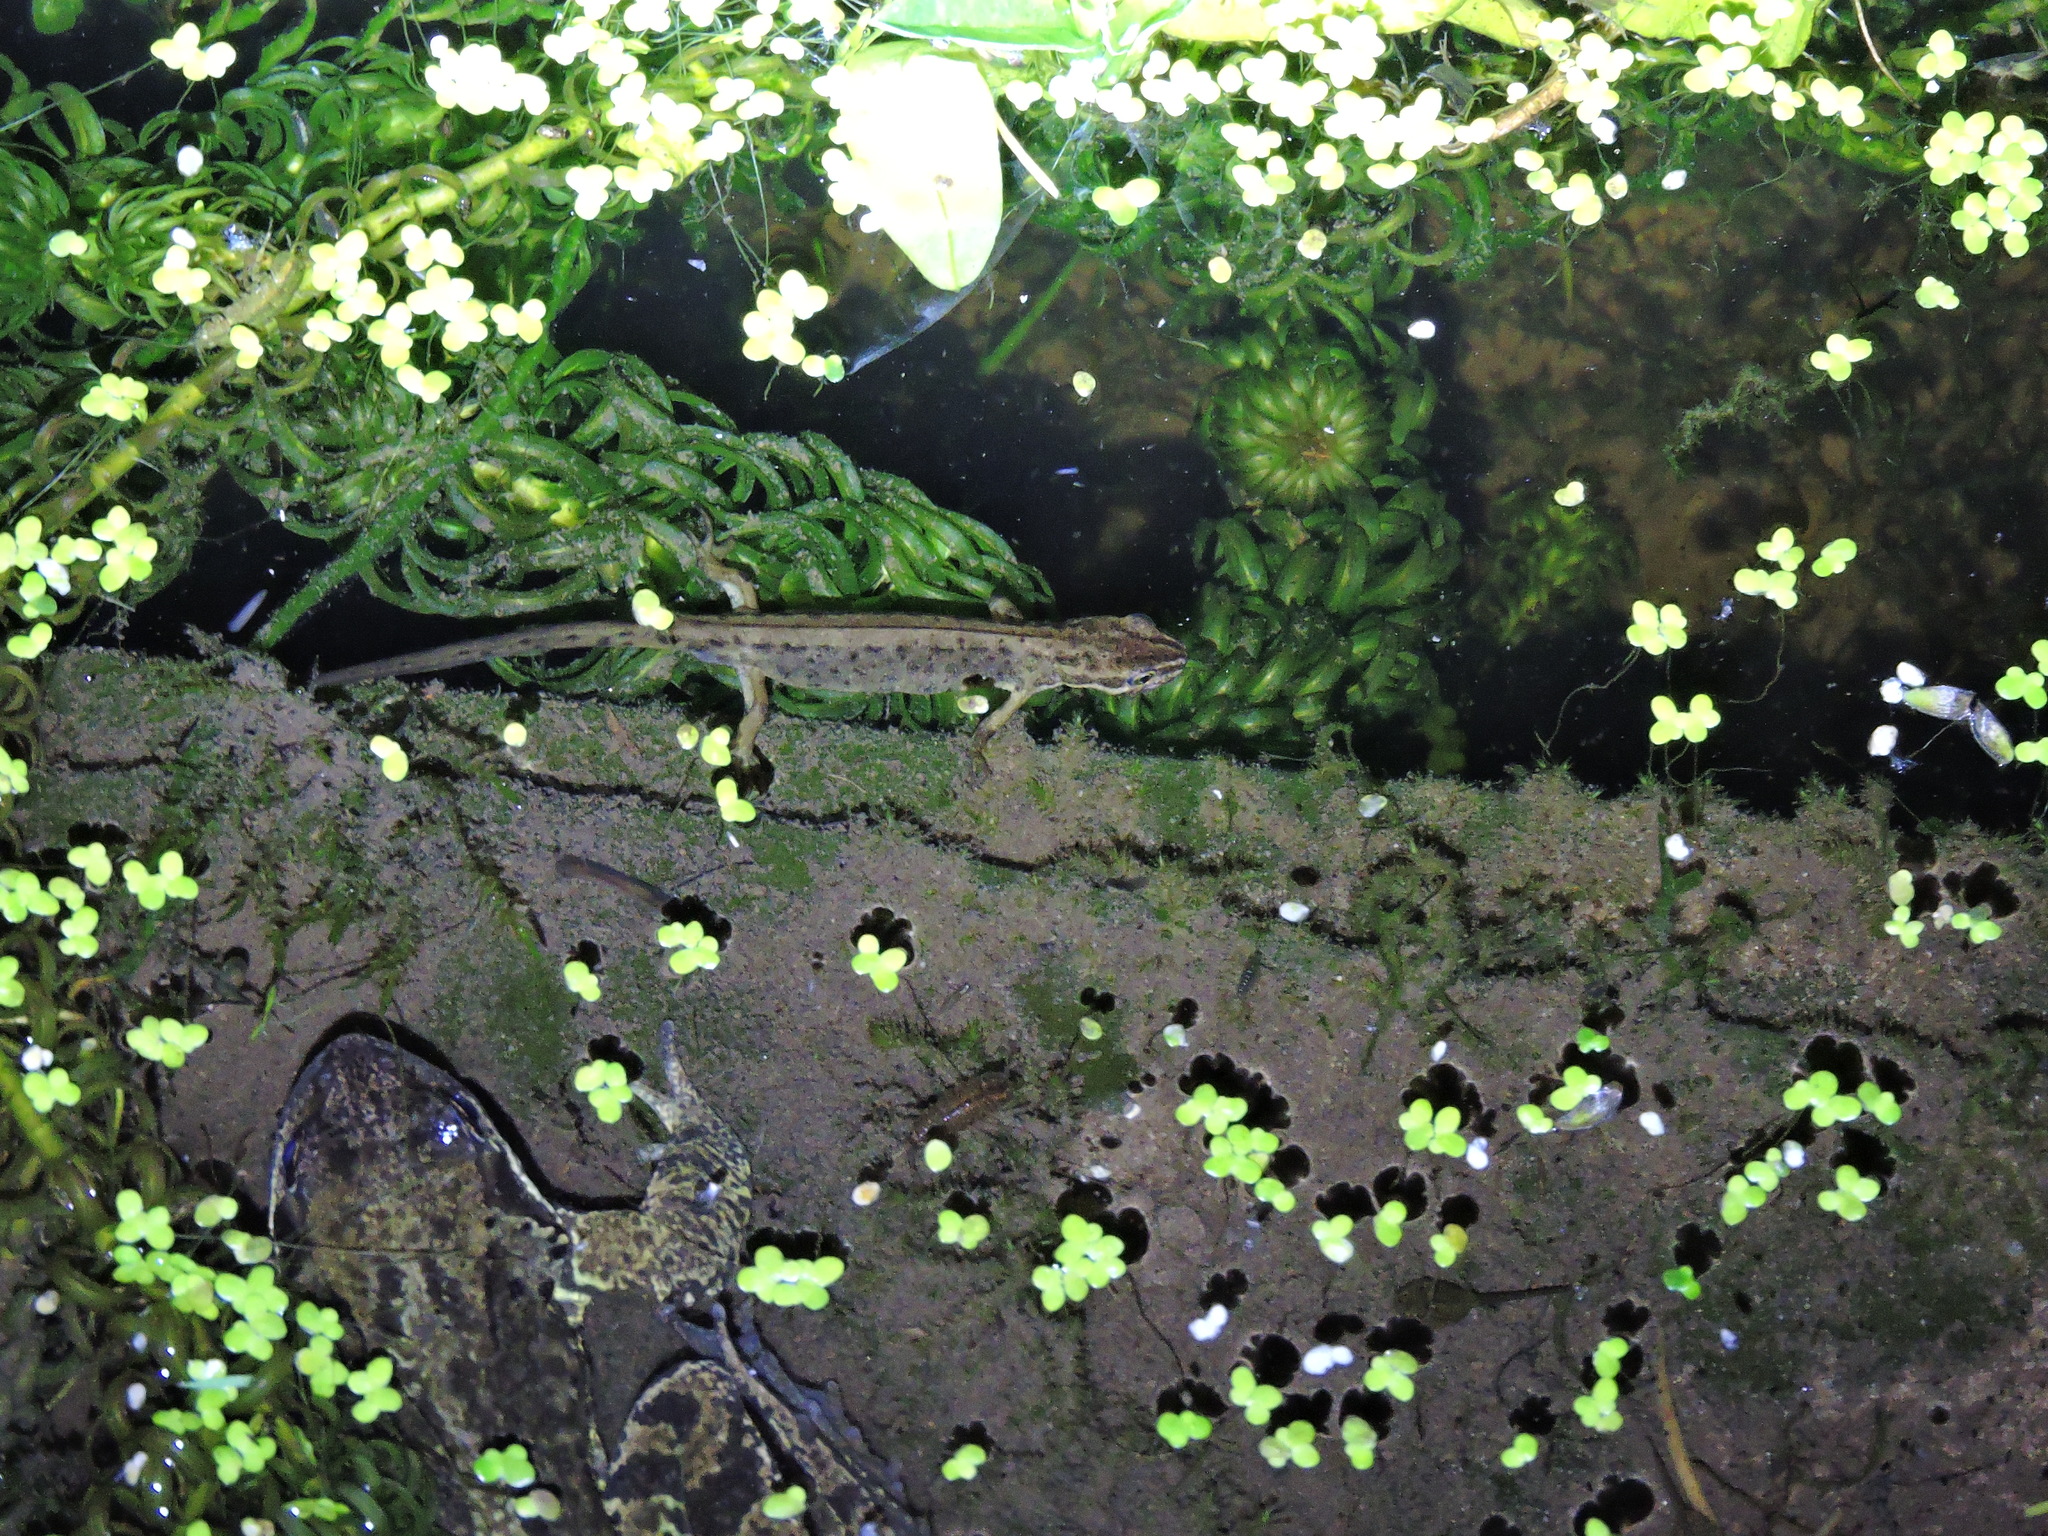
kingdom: Animalia
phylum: Chordata
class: Amphibia
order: Caudata
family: Salamandridae
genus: Lissotriton
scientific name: Lissotriton vulgaris
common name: Smooth newt
